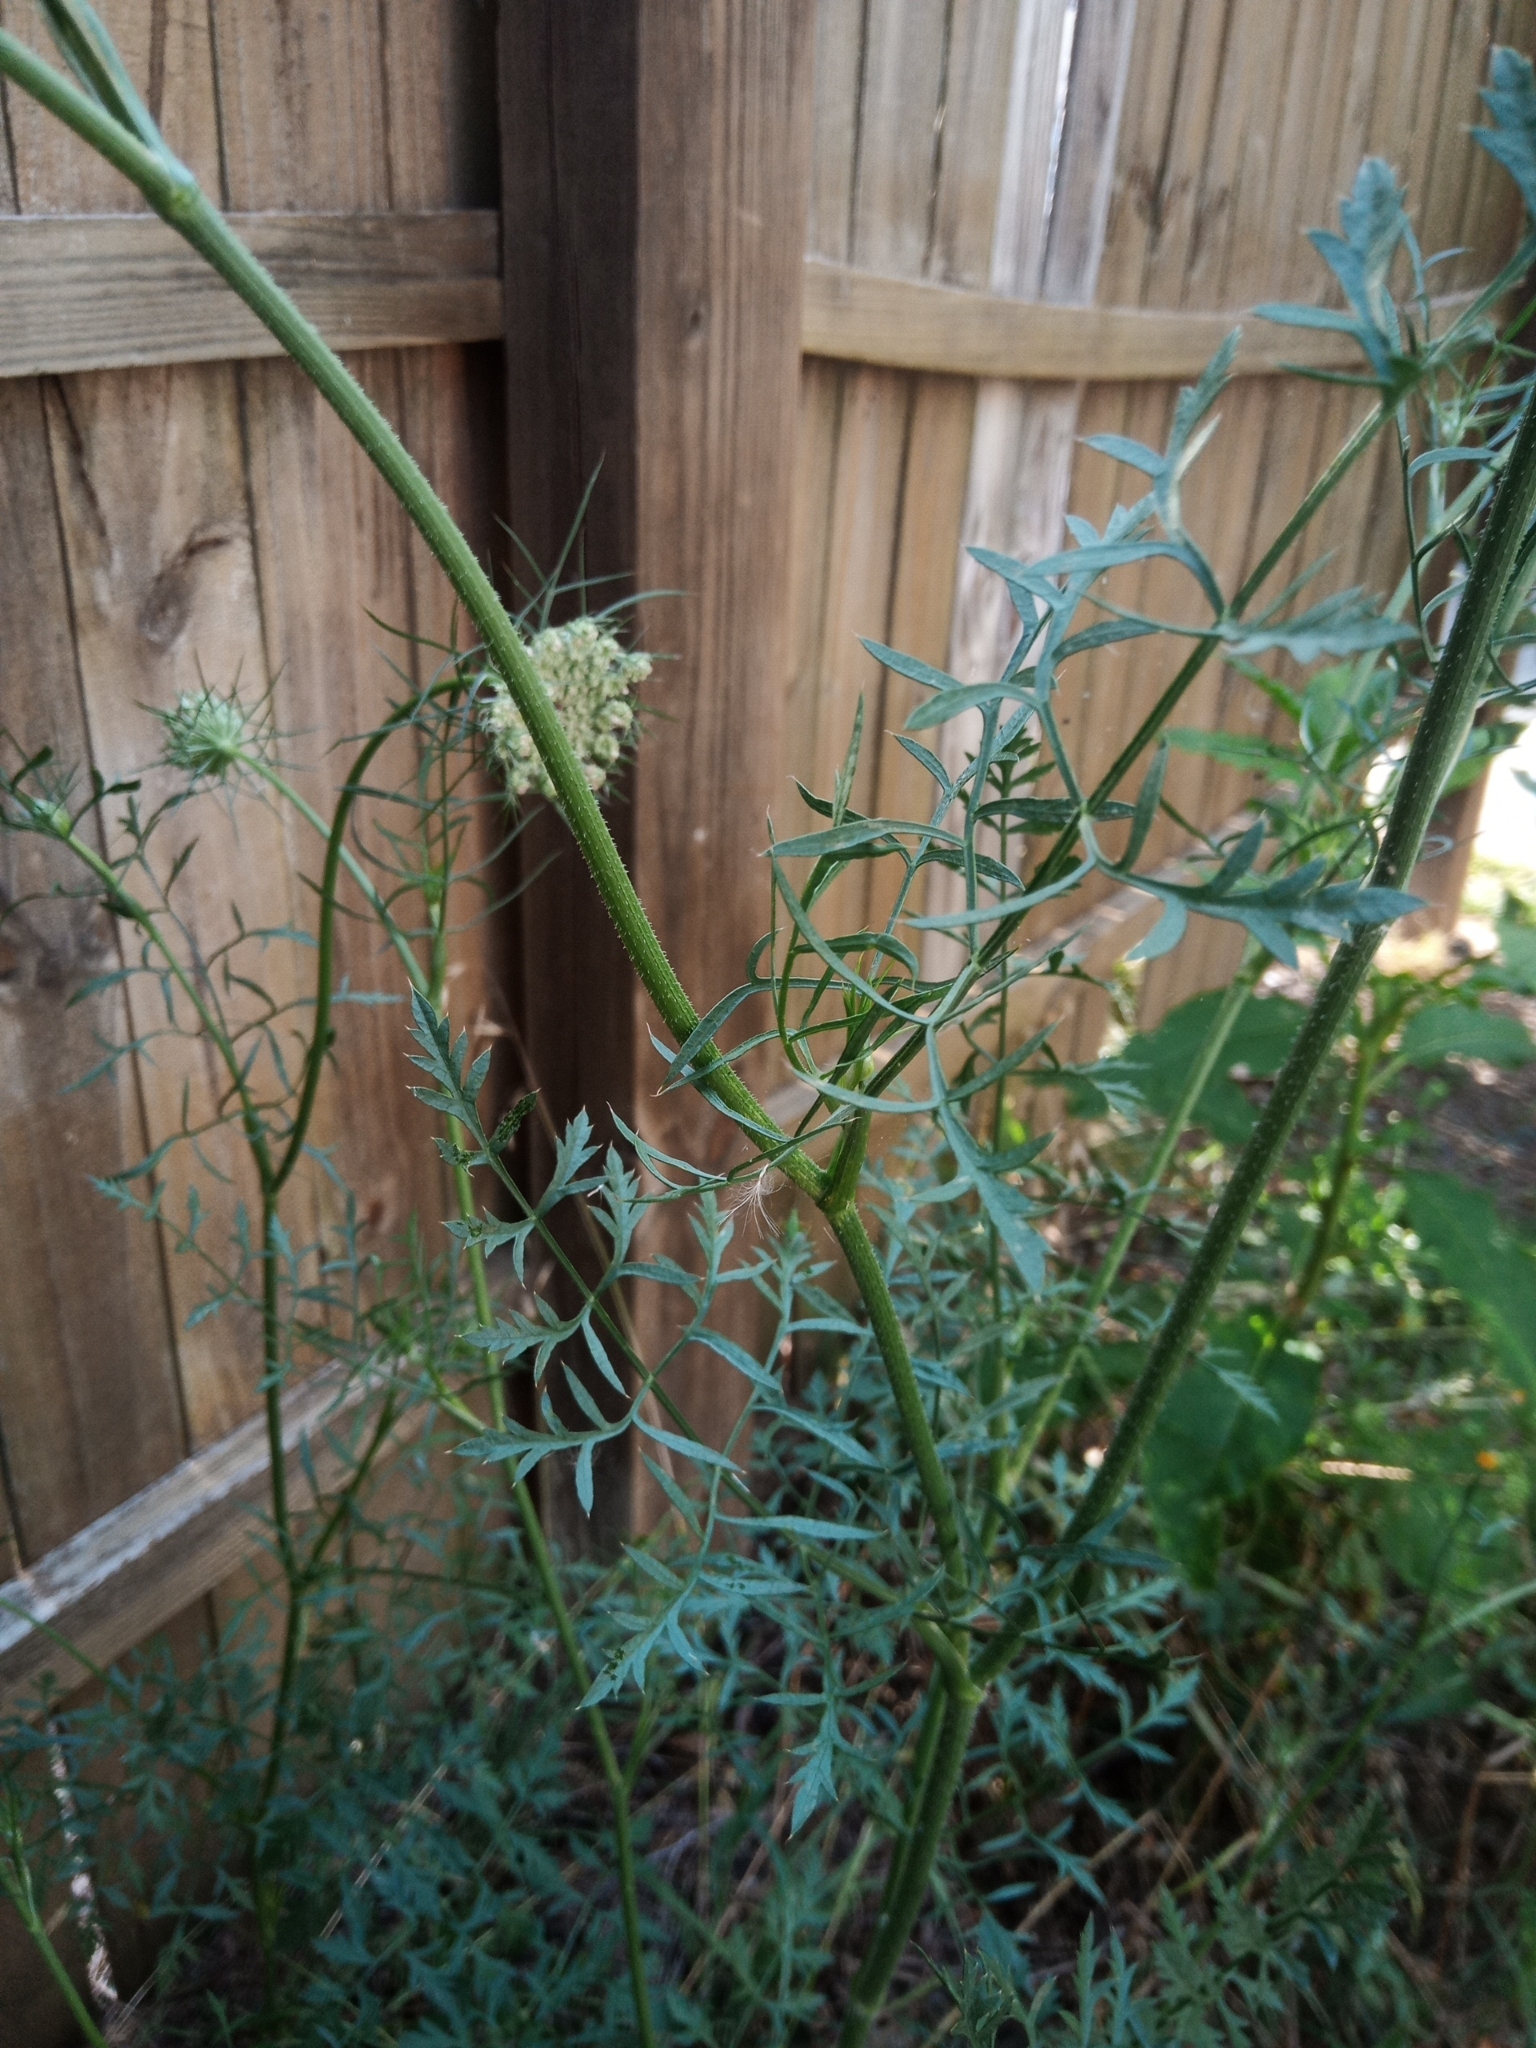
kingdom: Plantae
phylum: Tracheophyta
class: Magnoliopsida
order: Apiales
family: Apiaceae
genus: Daucus
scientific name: Daucus carota
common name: Wild carrot
